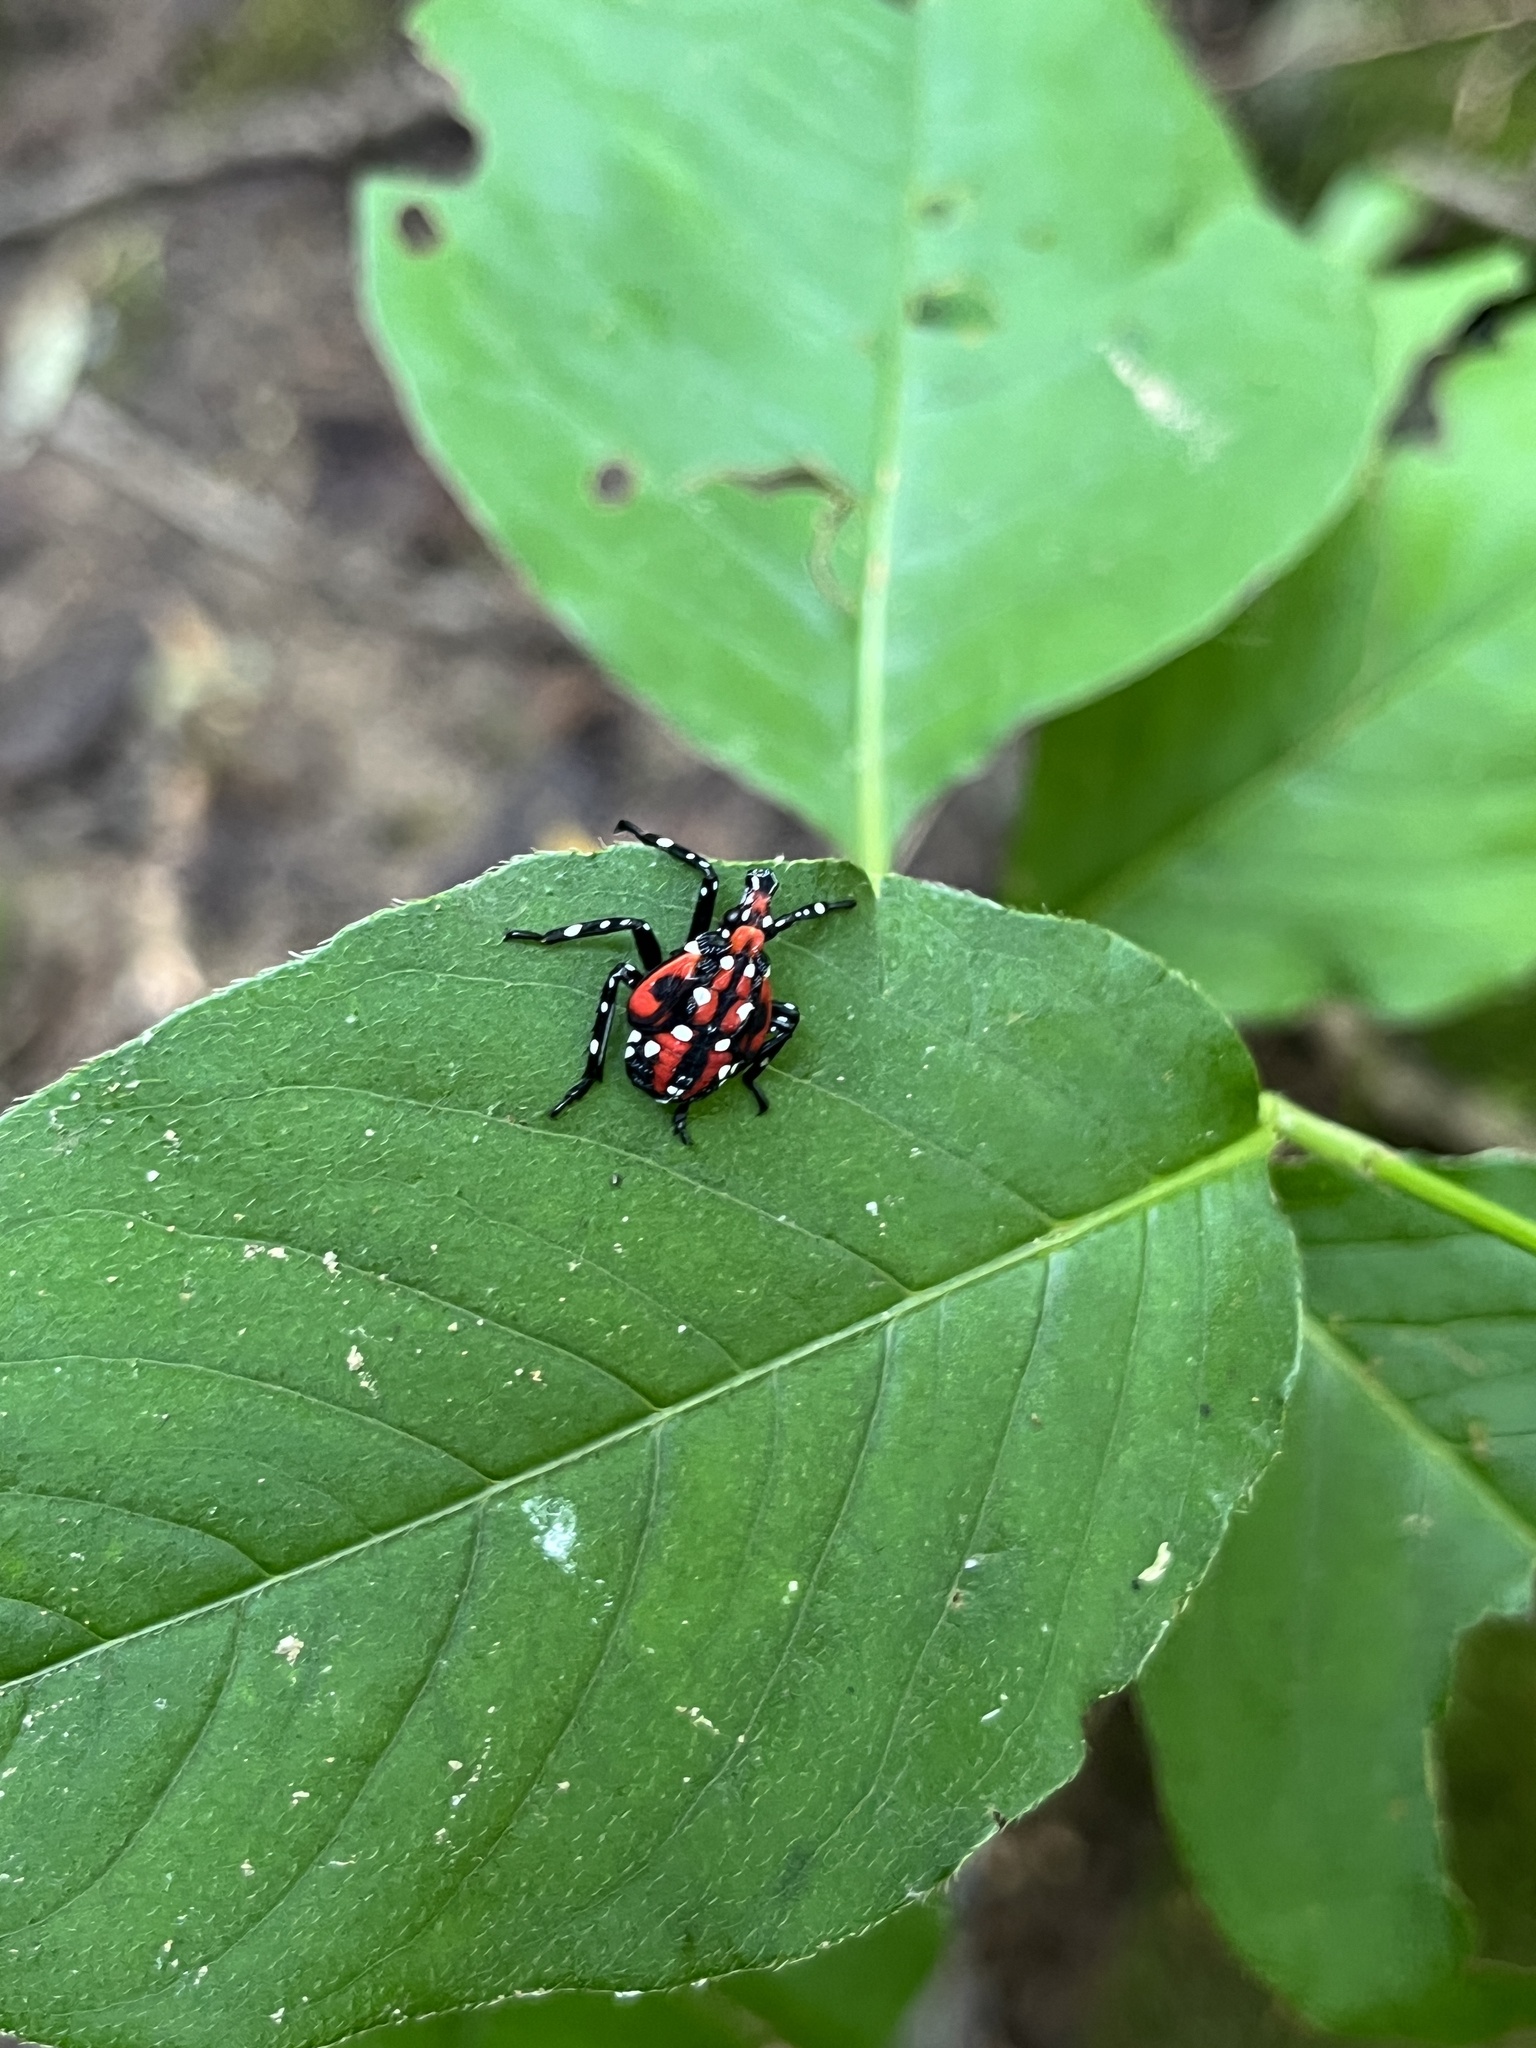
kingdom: Animalia
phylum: Arthropoda
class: Insecta
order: Hemiptera
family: Fulgoridae
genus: Lycorma
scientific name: Lycorma delicatula
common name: Spotted lanternfly
